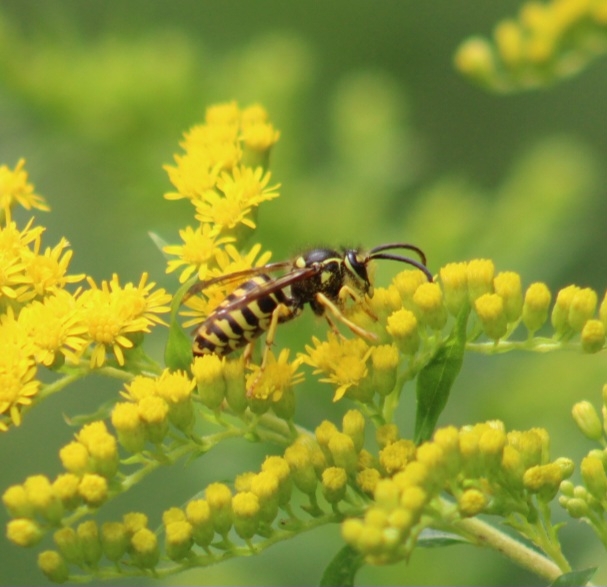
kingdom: Animalia
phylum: Arthropoda
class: Insecta
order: Hymenoptera
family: Vespidae
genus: Dolichovespula
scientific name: Dolichovespula arenaria
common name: Aerial yellowjacket
